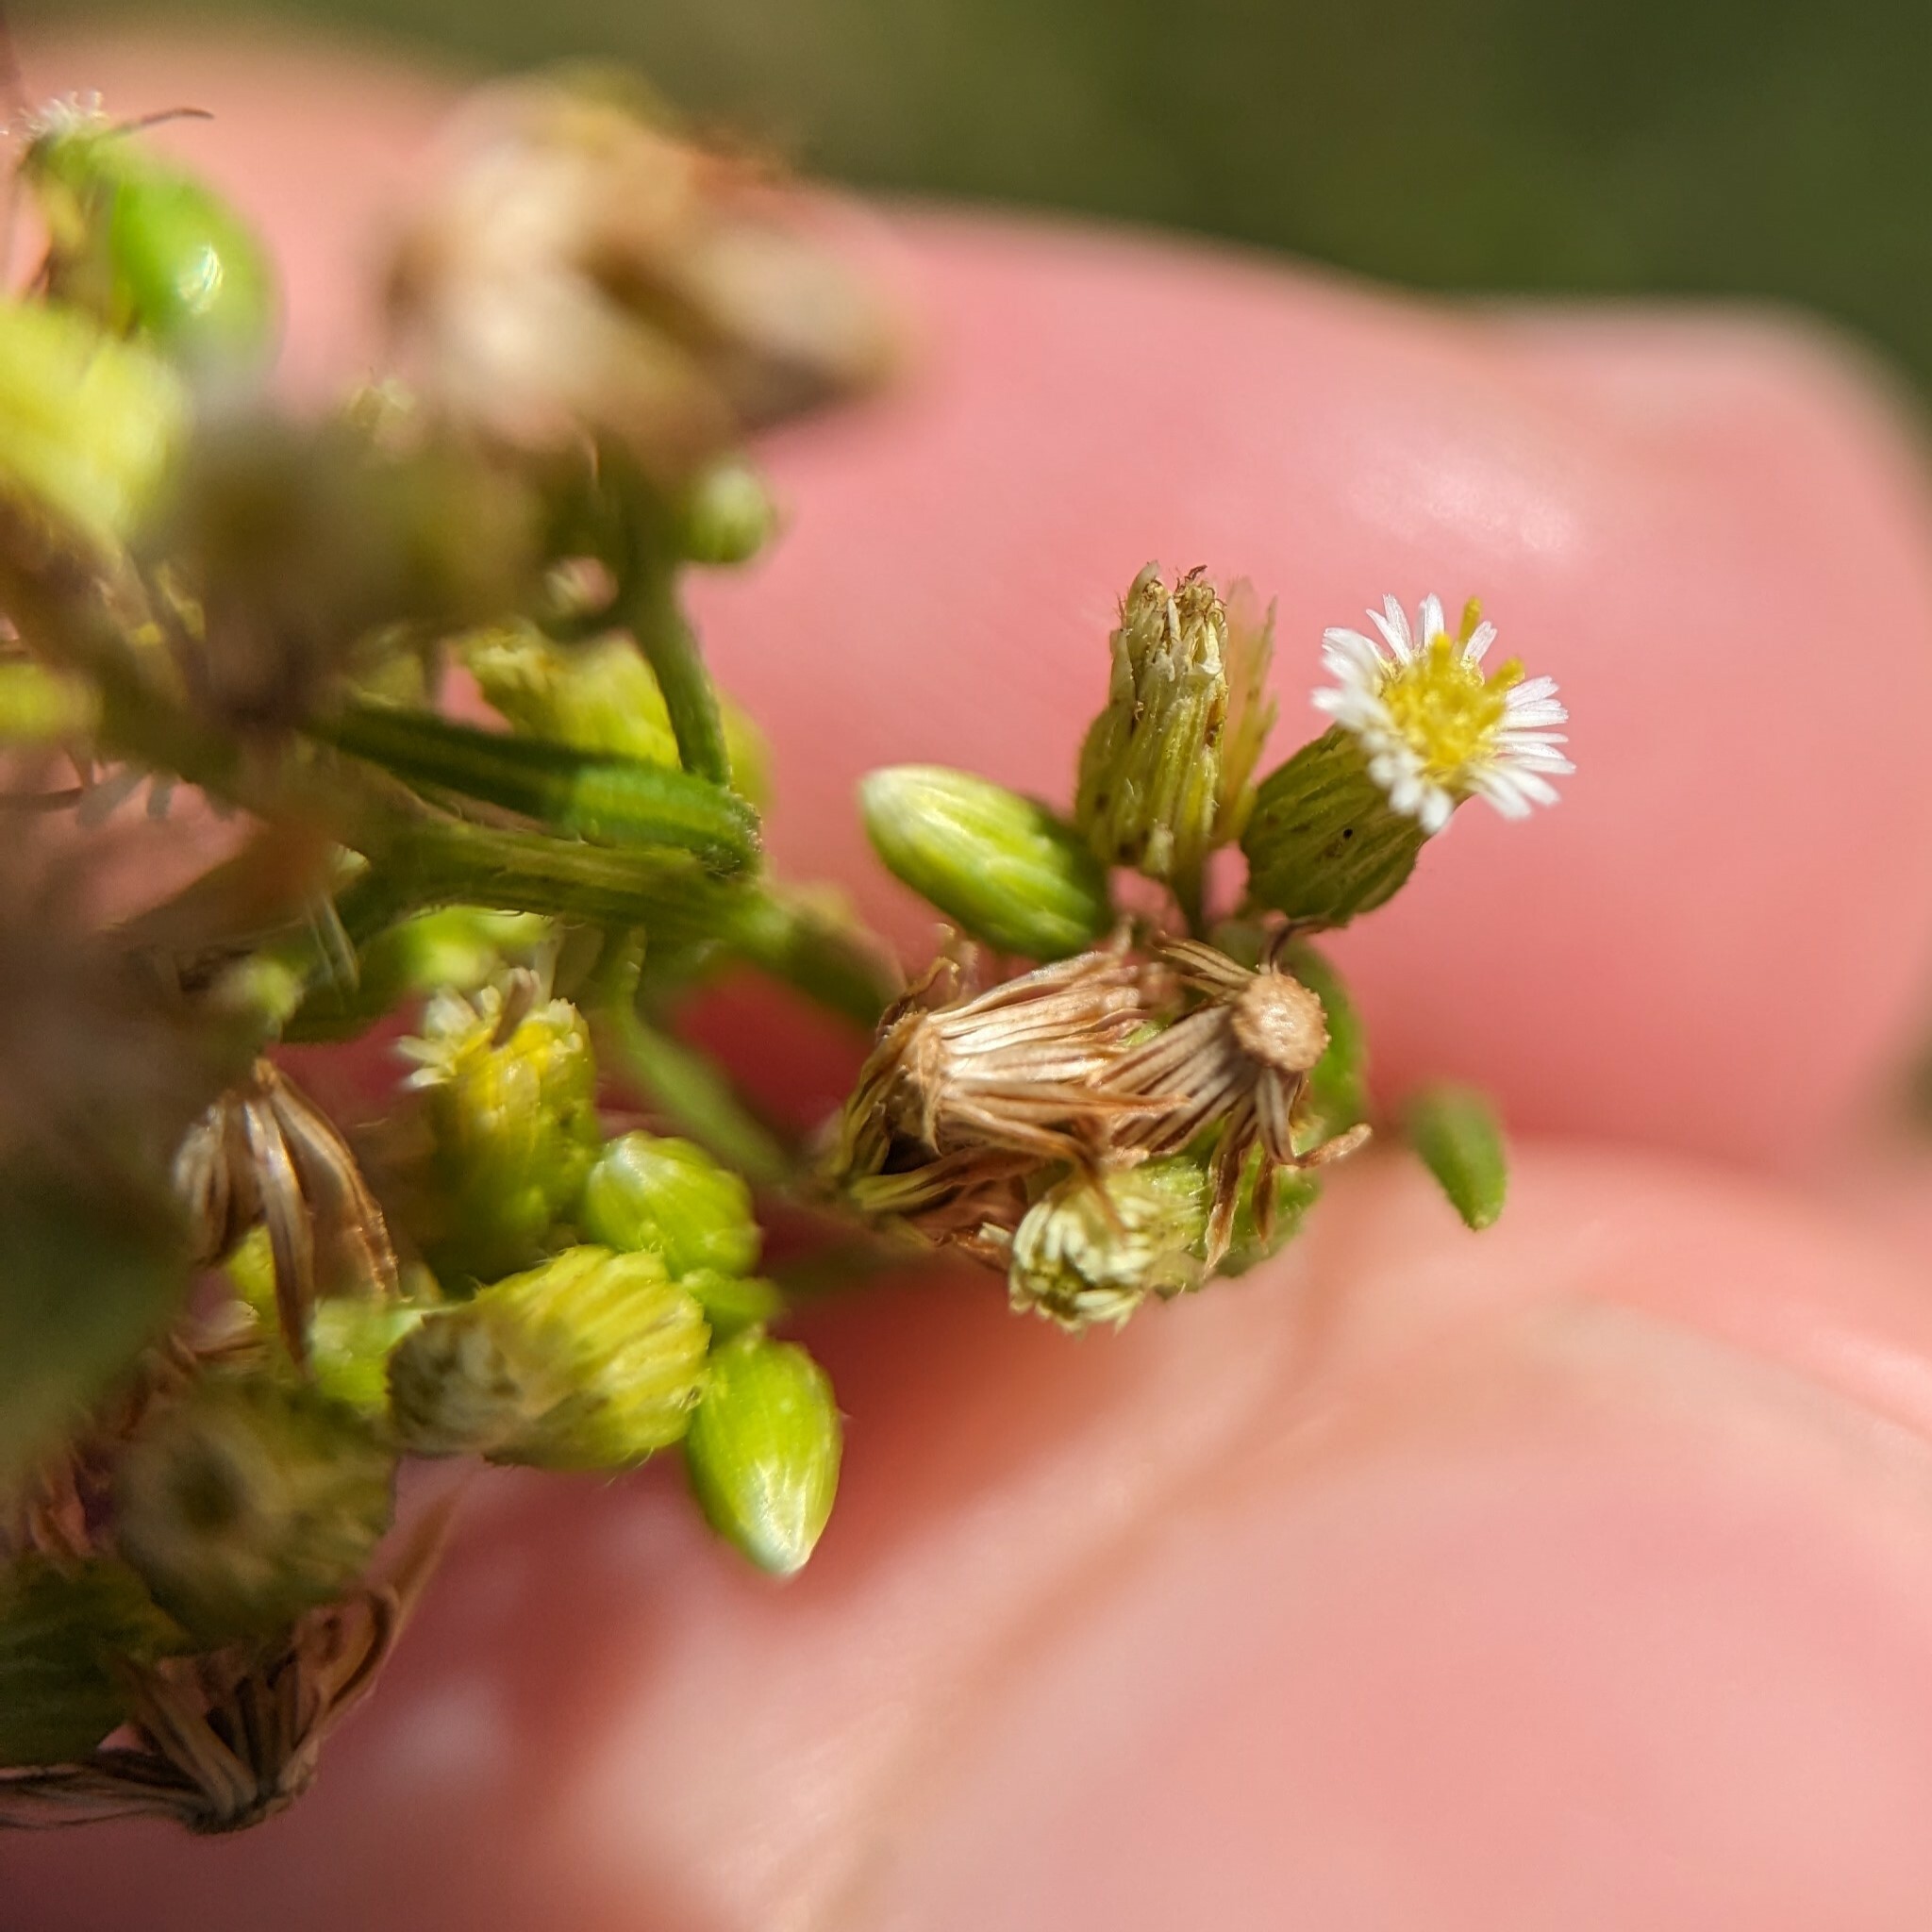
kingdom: Plantae
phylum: Tracheophyta
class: Magnoliopsida
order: Asterales
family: Asteraceae
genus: Erigeron
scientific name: Erigeron canadensis
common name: Canadian fleabane
